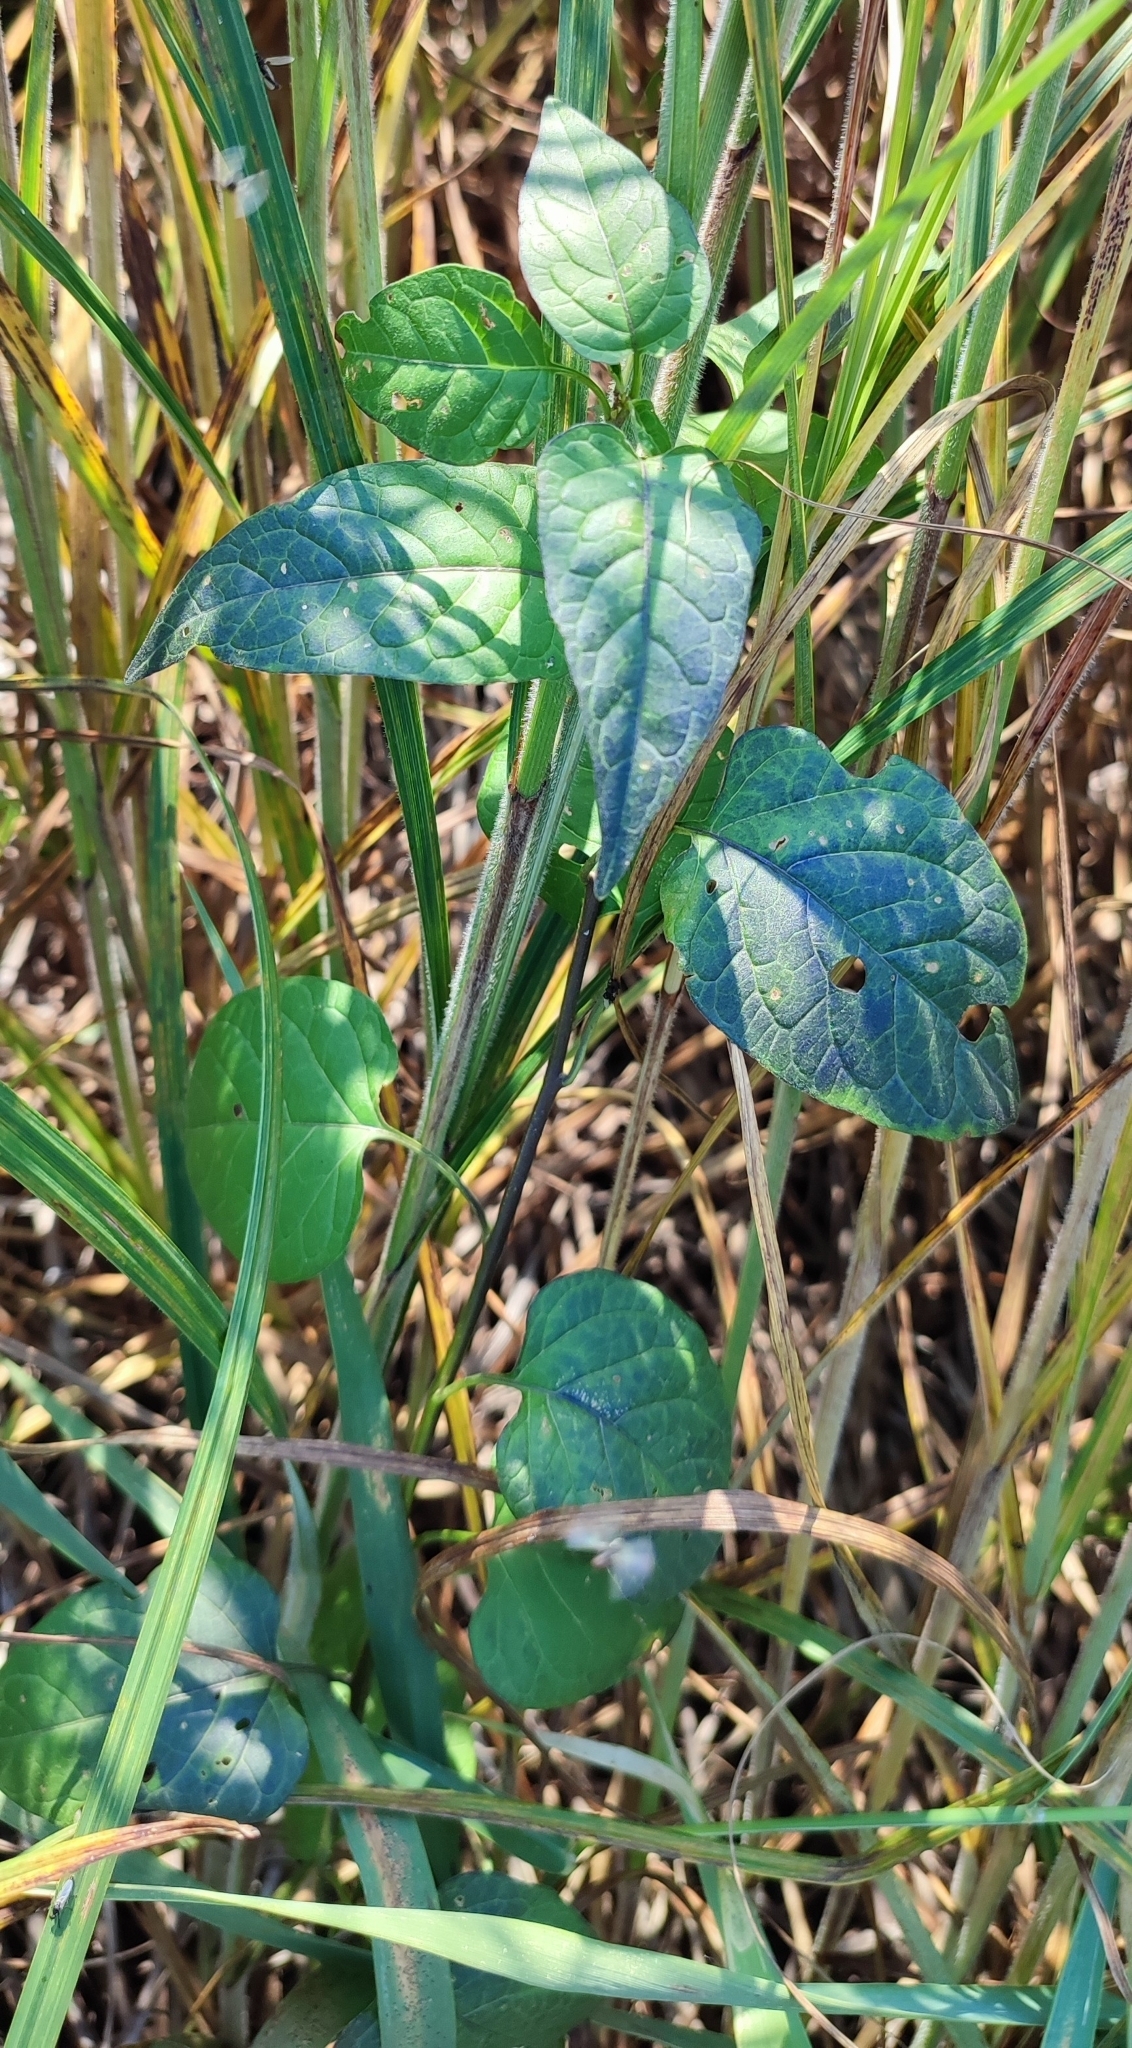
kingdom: Plantae
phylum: Tracheophyta
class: Magnoliopsida
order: Solanales
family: Solanaceae
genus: Solanum
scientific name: Solanum dulcamara
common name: Climbing nightshade
